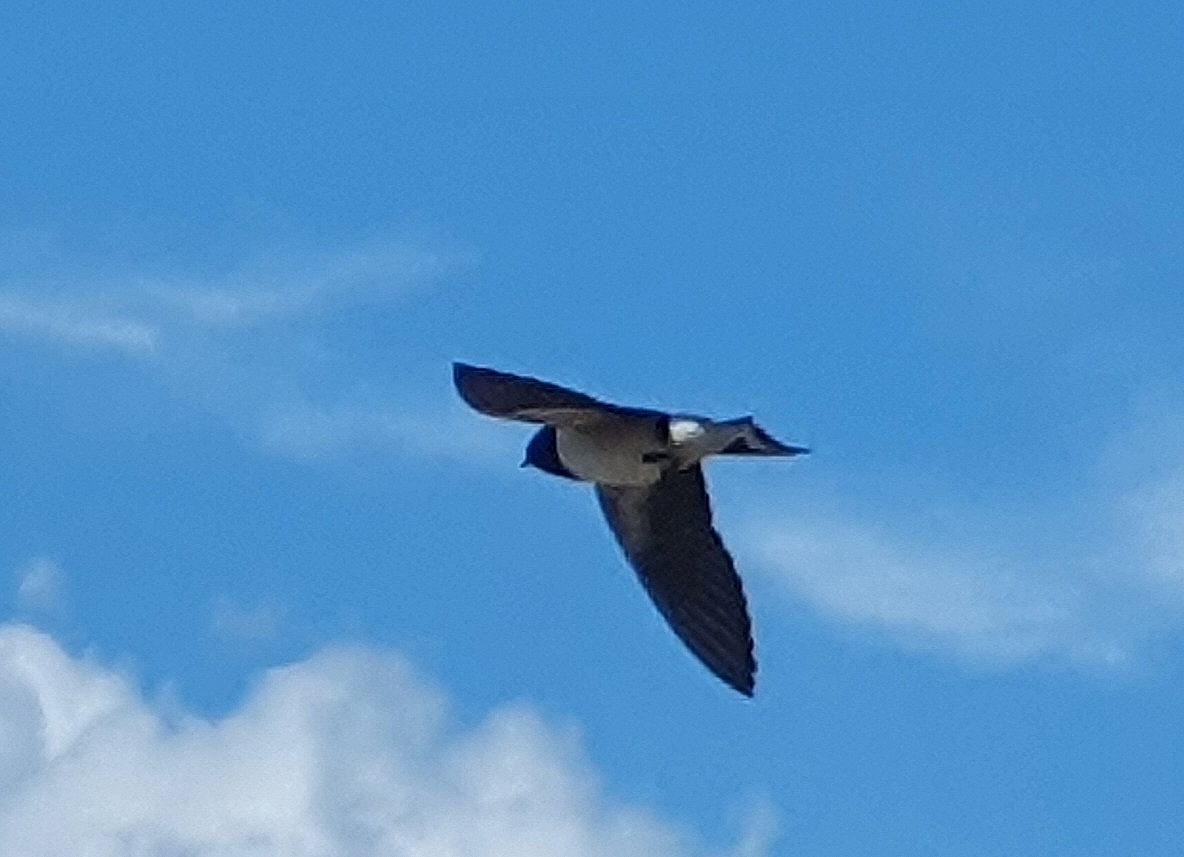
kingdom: Animalia
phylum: Chordata
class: Aves
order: Passeriformes
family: Hirundinidae
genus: Hirundo
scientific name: Hirundo rustica
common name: Barn swallow
